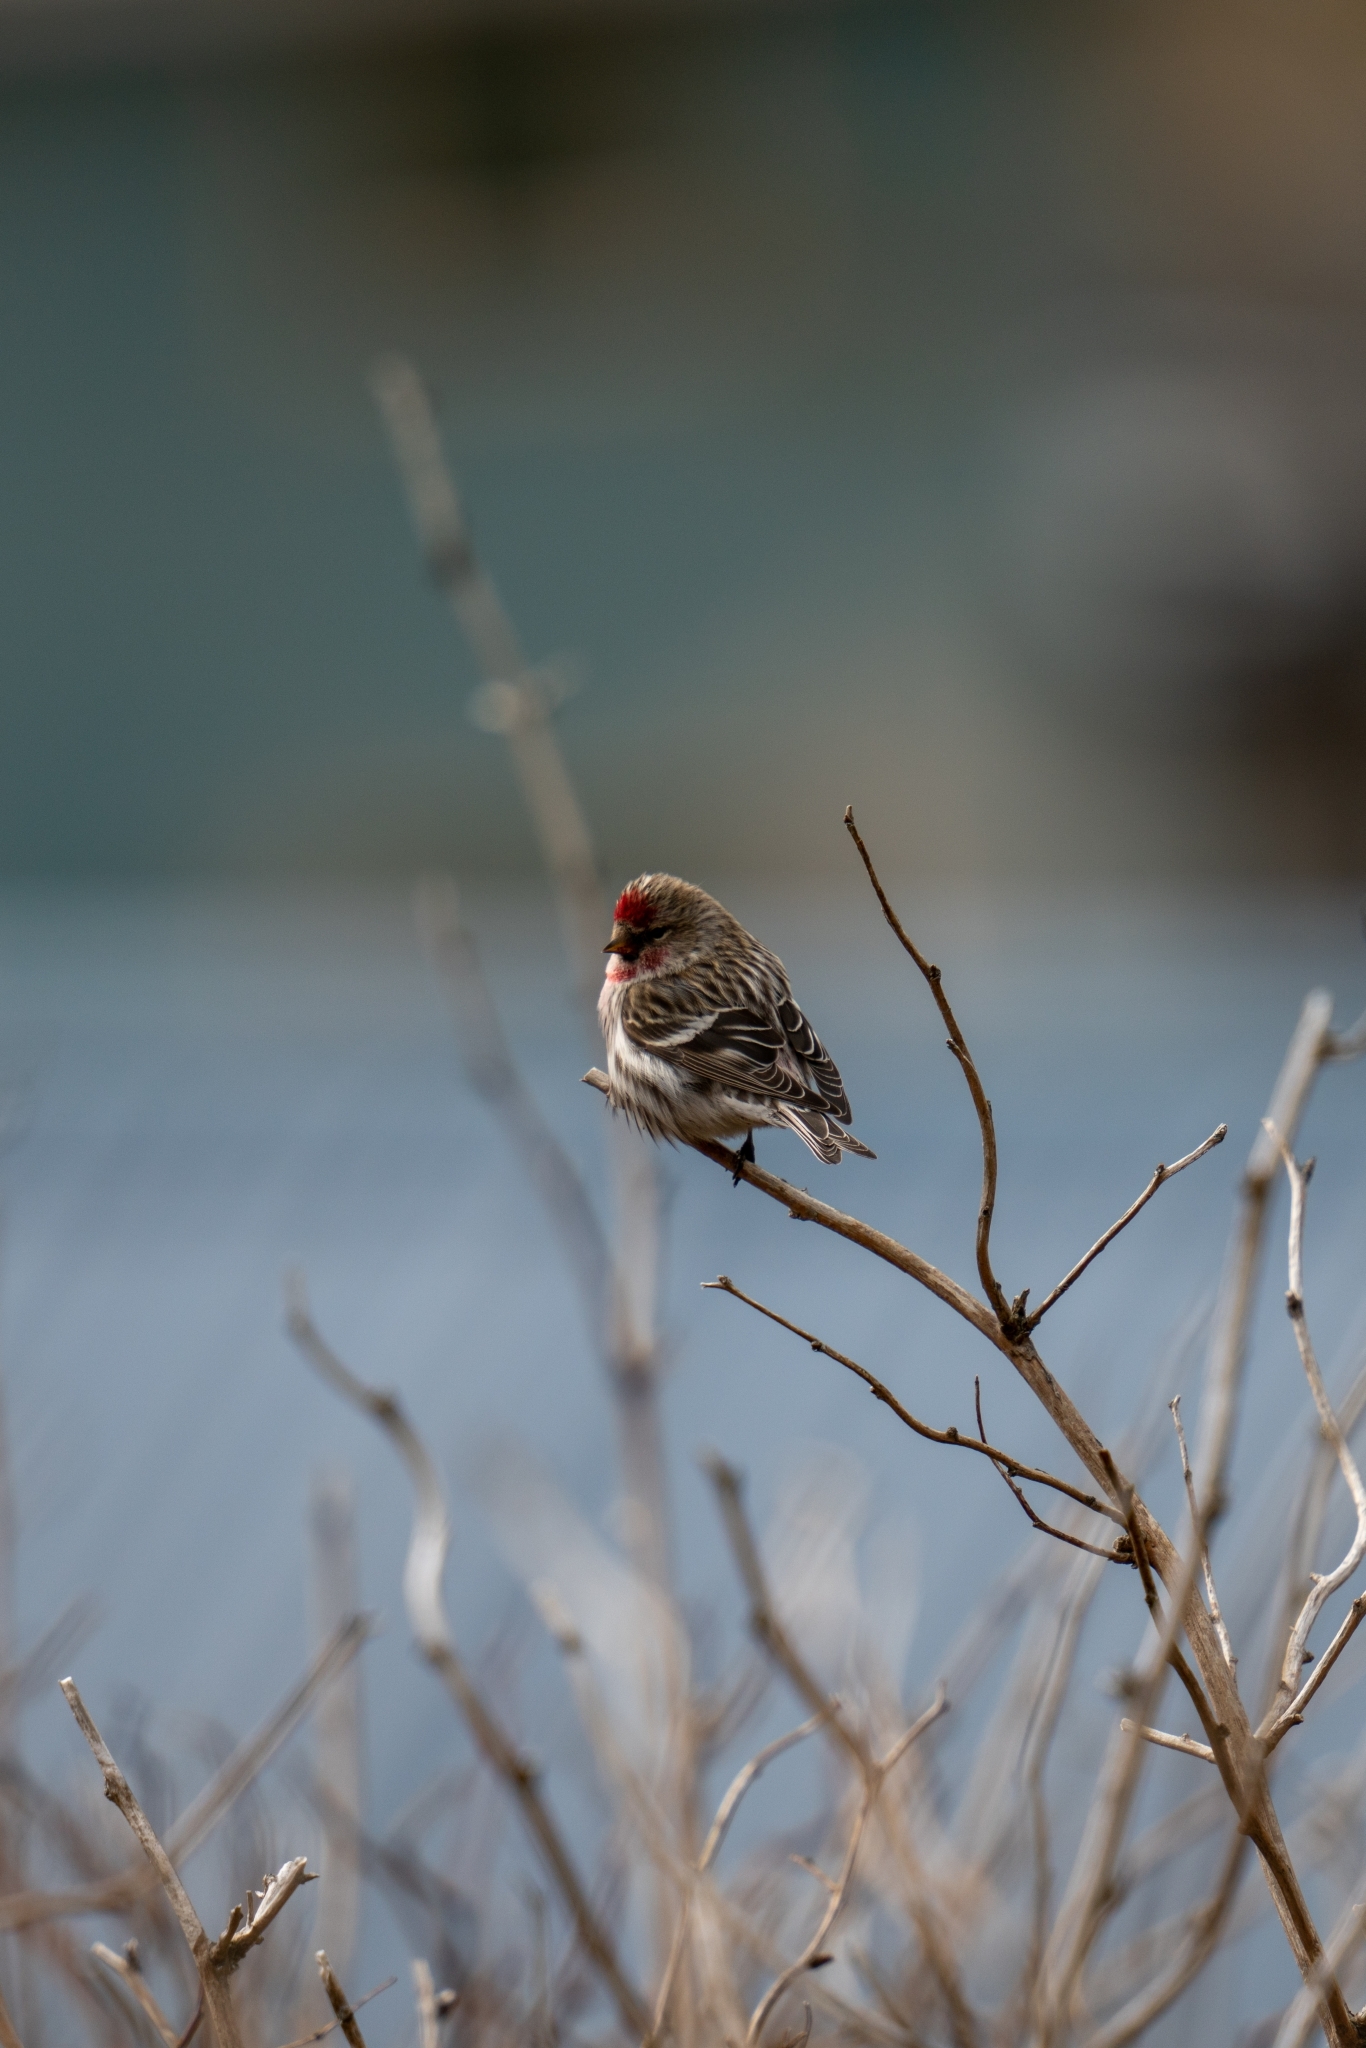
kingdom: Animalia
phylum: Chordata
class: Aves
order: Passeriformes
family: Fringillidae
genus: Acanthis
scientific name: Acanthis flammea
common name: Common redpoll
